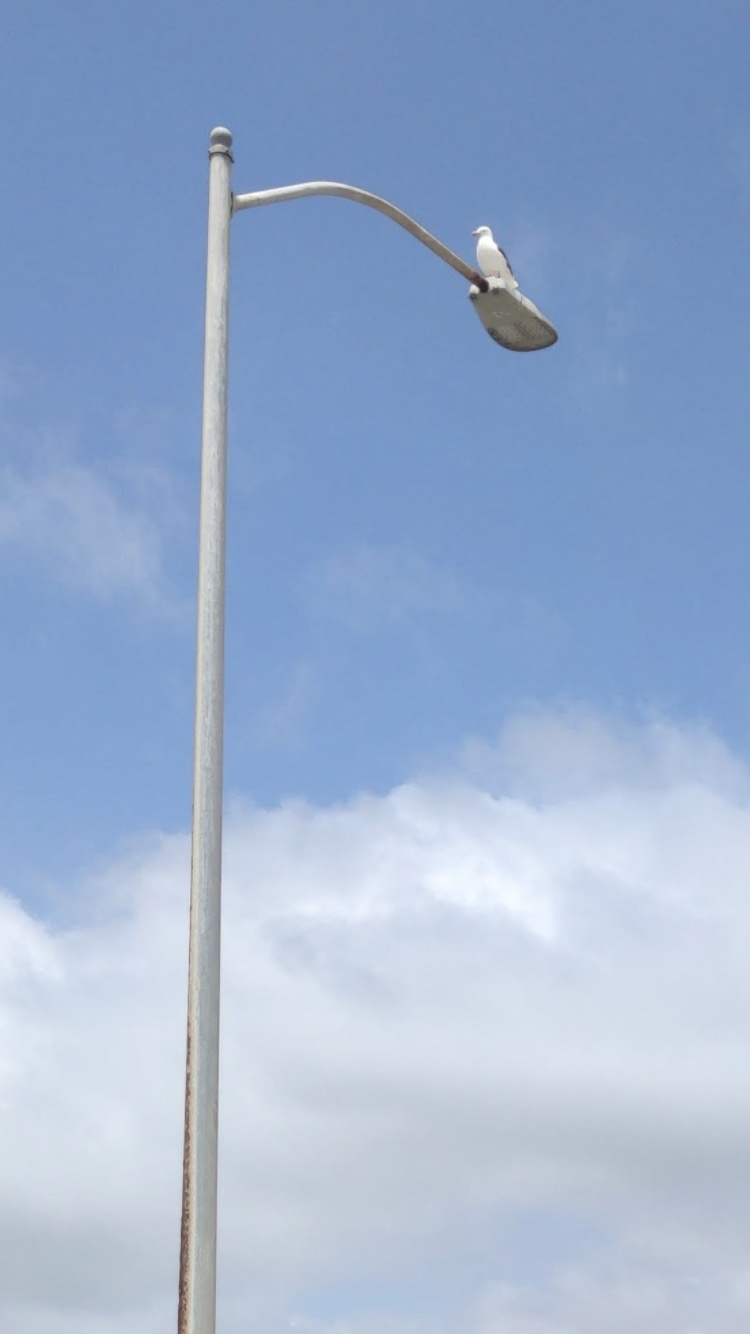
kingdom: Animalia
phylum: Chordata
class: Aves
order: Charadriiformes
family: Laridae
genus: Larus
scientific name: Larus occidentalis
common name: Western gull
